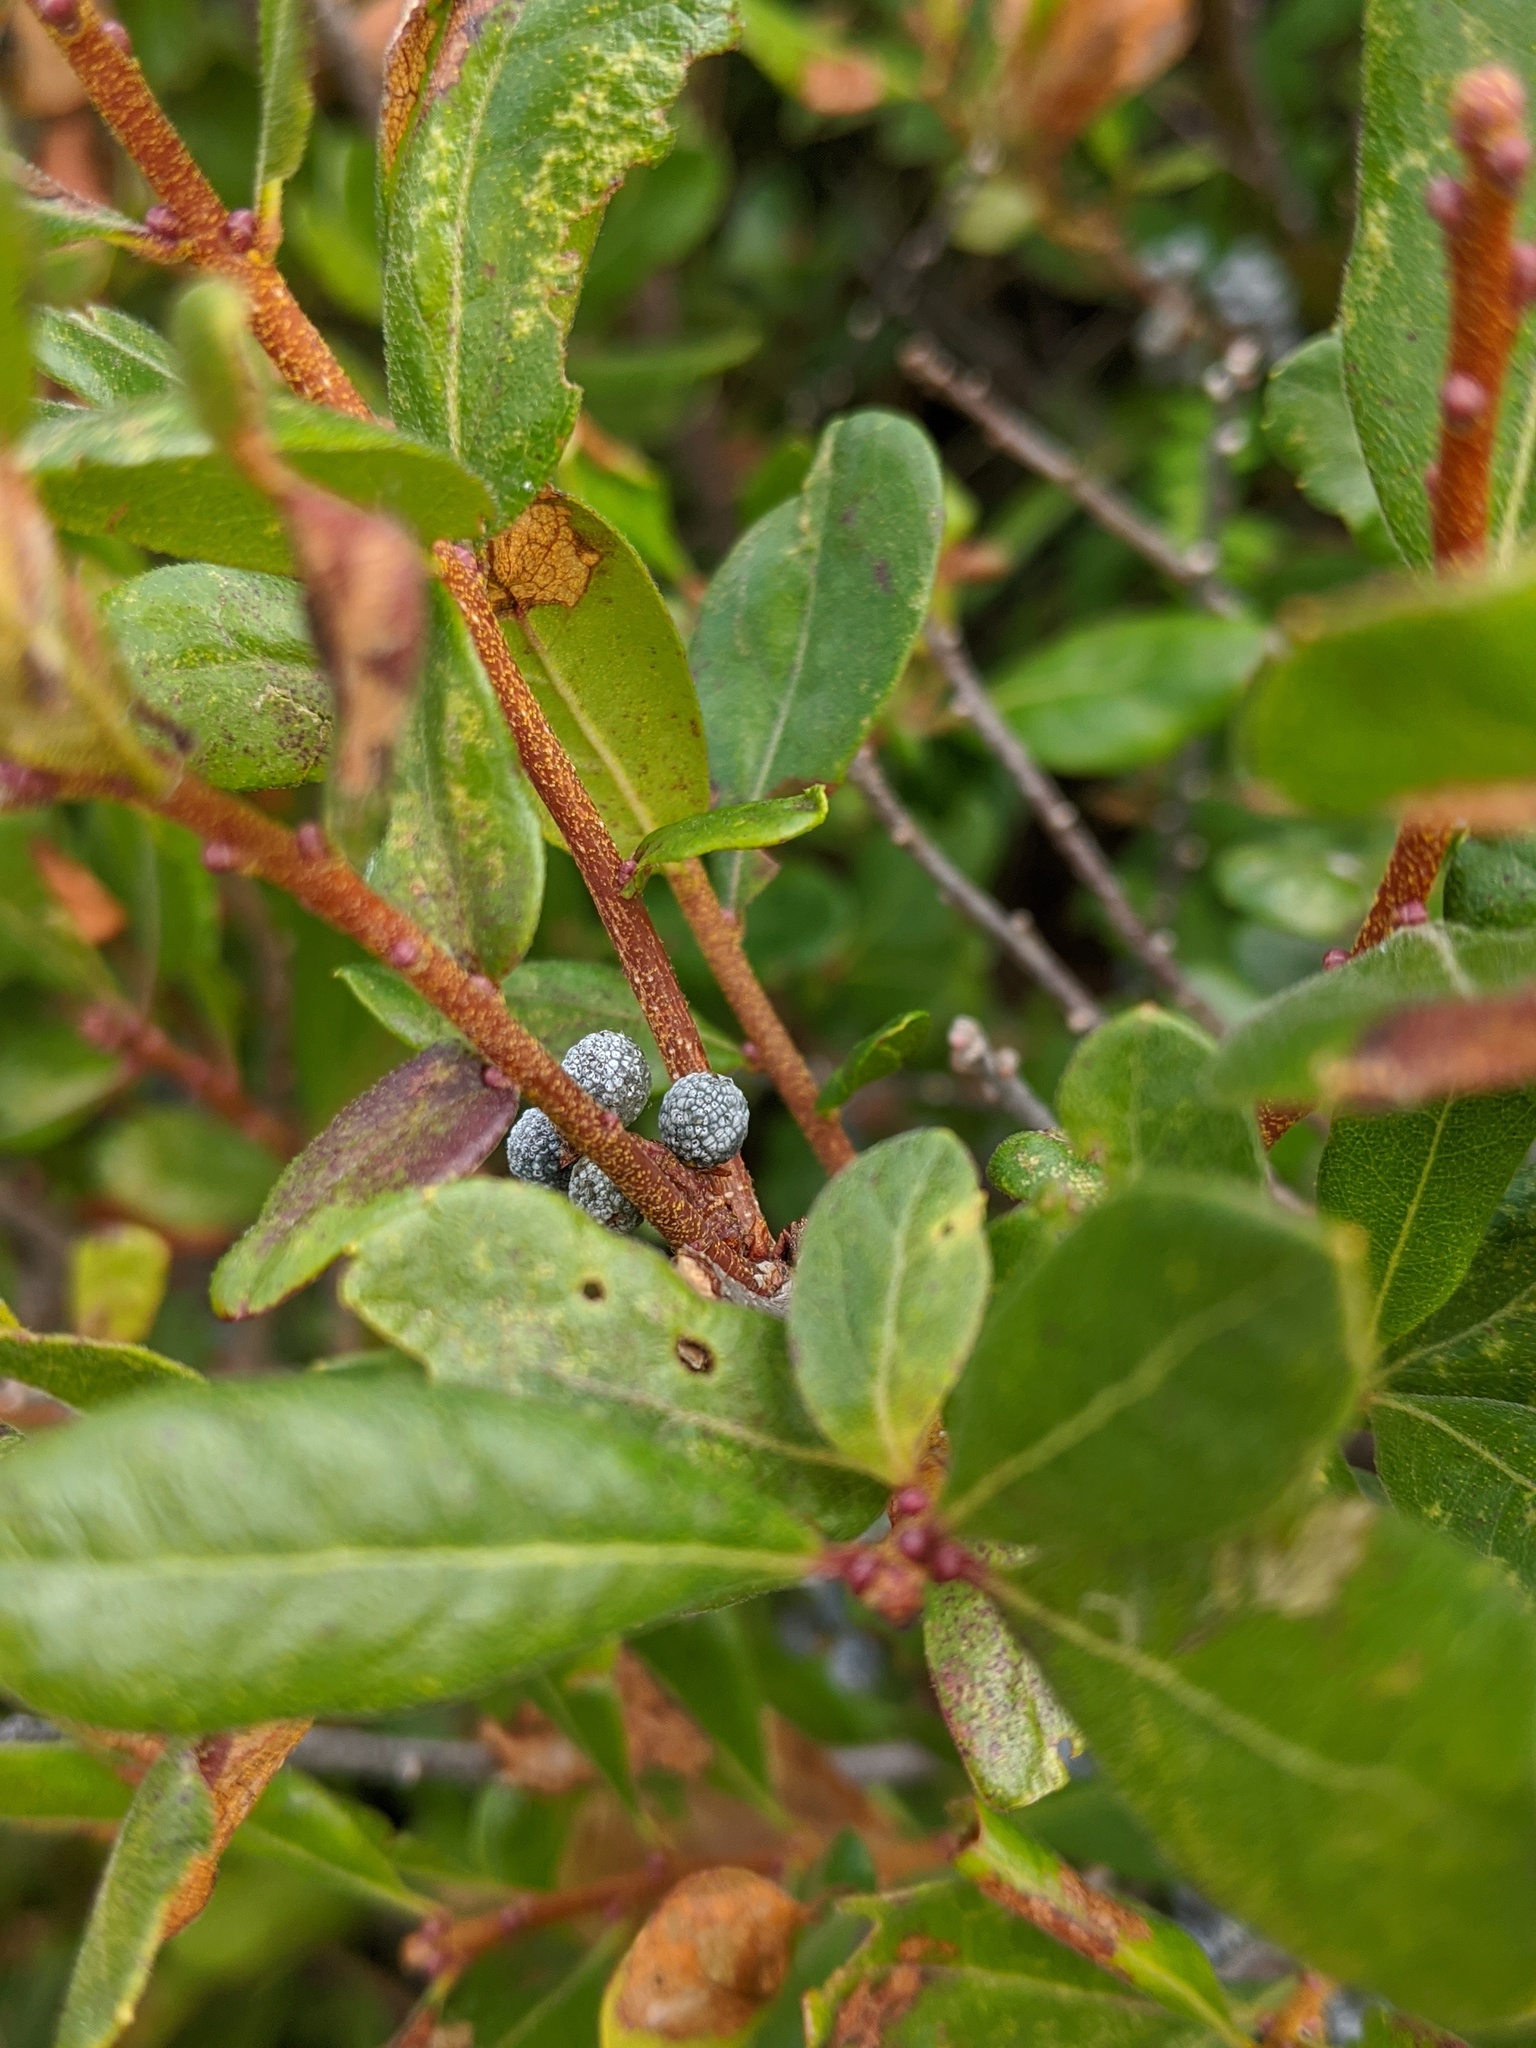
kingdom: Plantae
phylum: Tracheophyta
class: Magnoliopsida
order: Fagales
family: Myricaceae
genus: Morella
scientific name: Morella pensylvanica
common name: Northern bayberry
